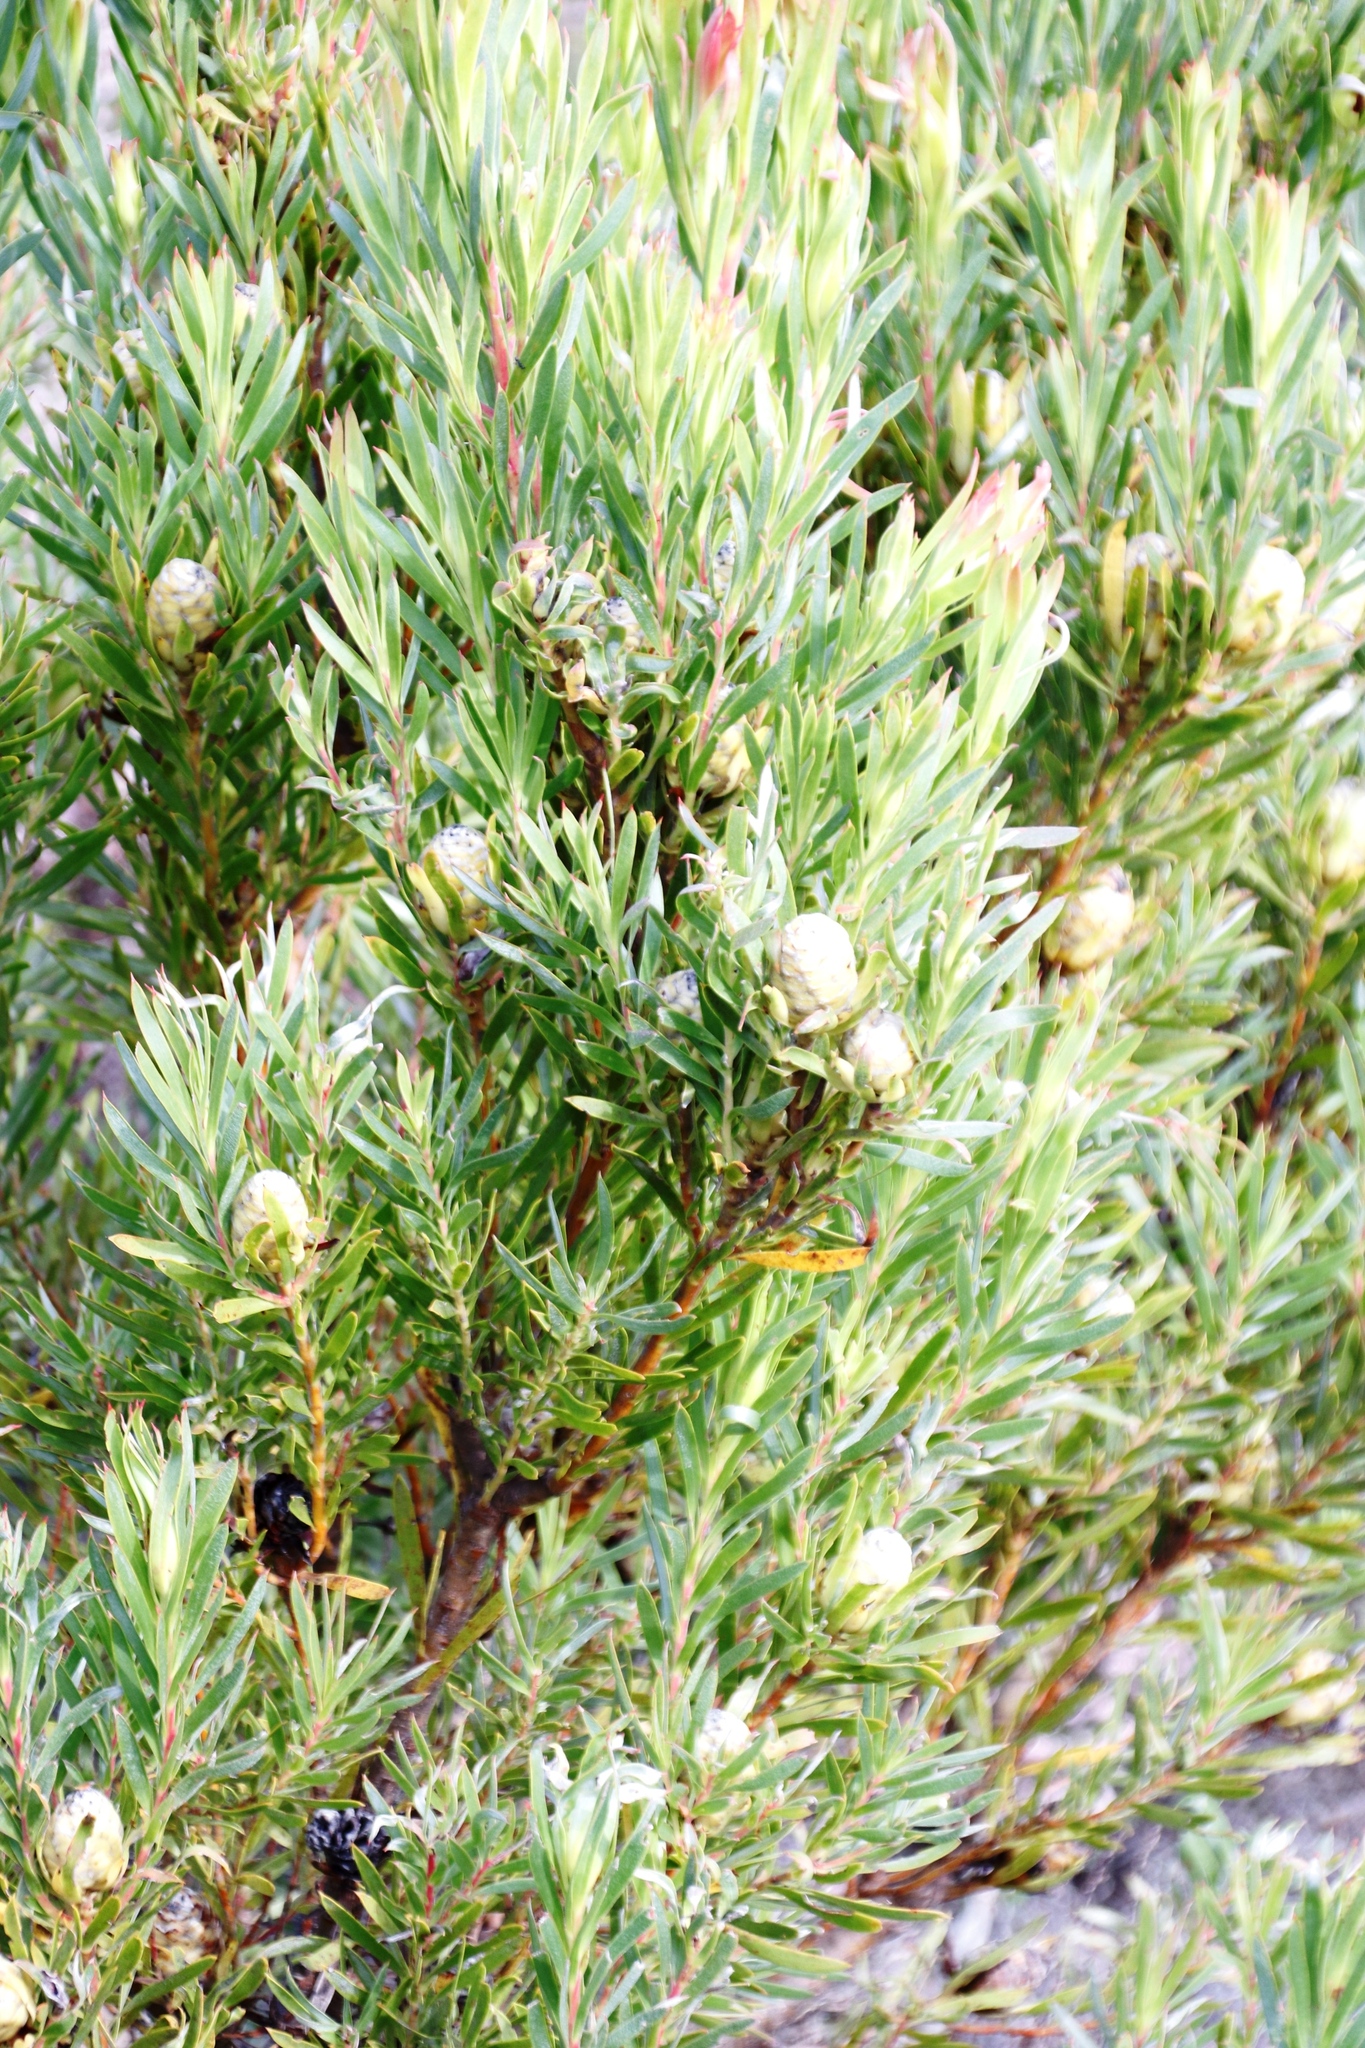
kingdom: Plantae
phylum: Tracheophyta
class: Magnoliopsida
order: Proteales
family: Proteaceae
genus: Leucadendron
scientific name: Leucadendron xanthoconus
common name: Sickle-leaf conebush
